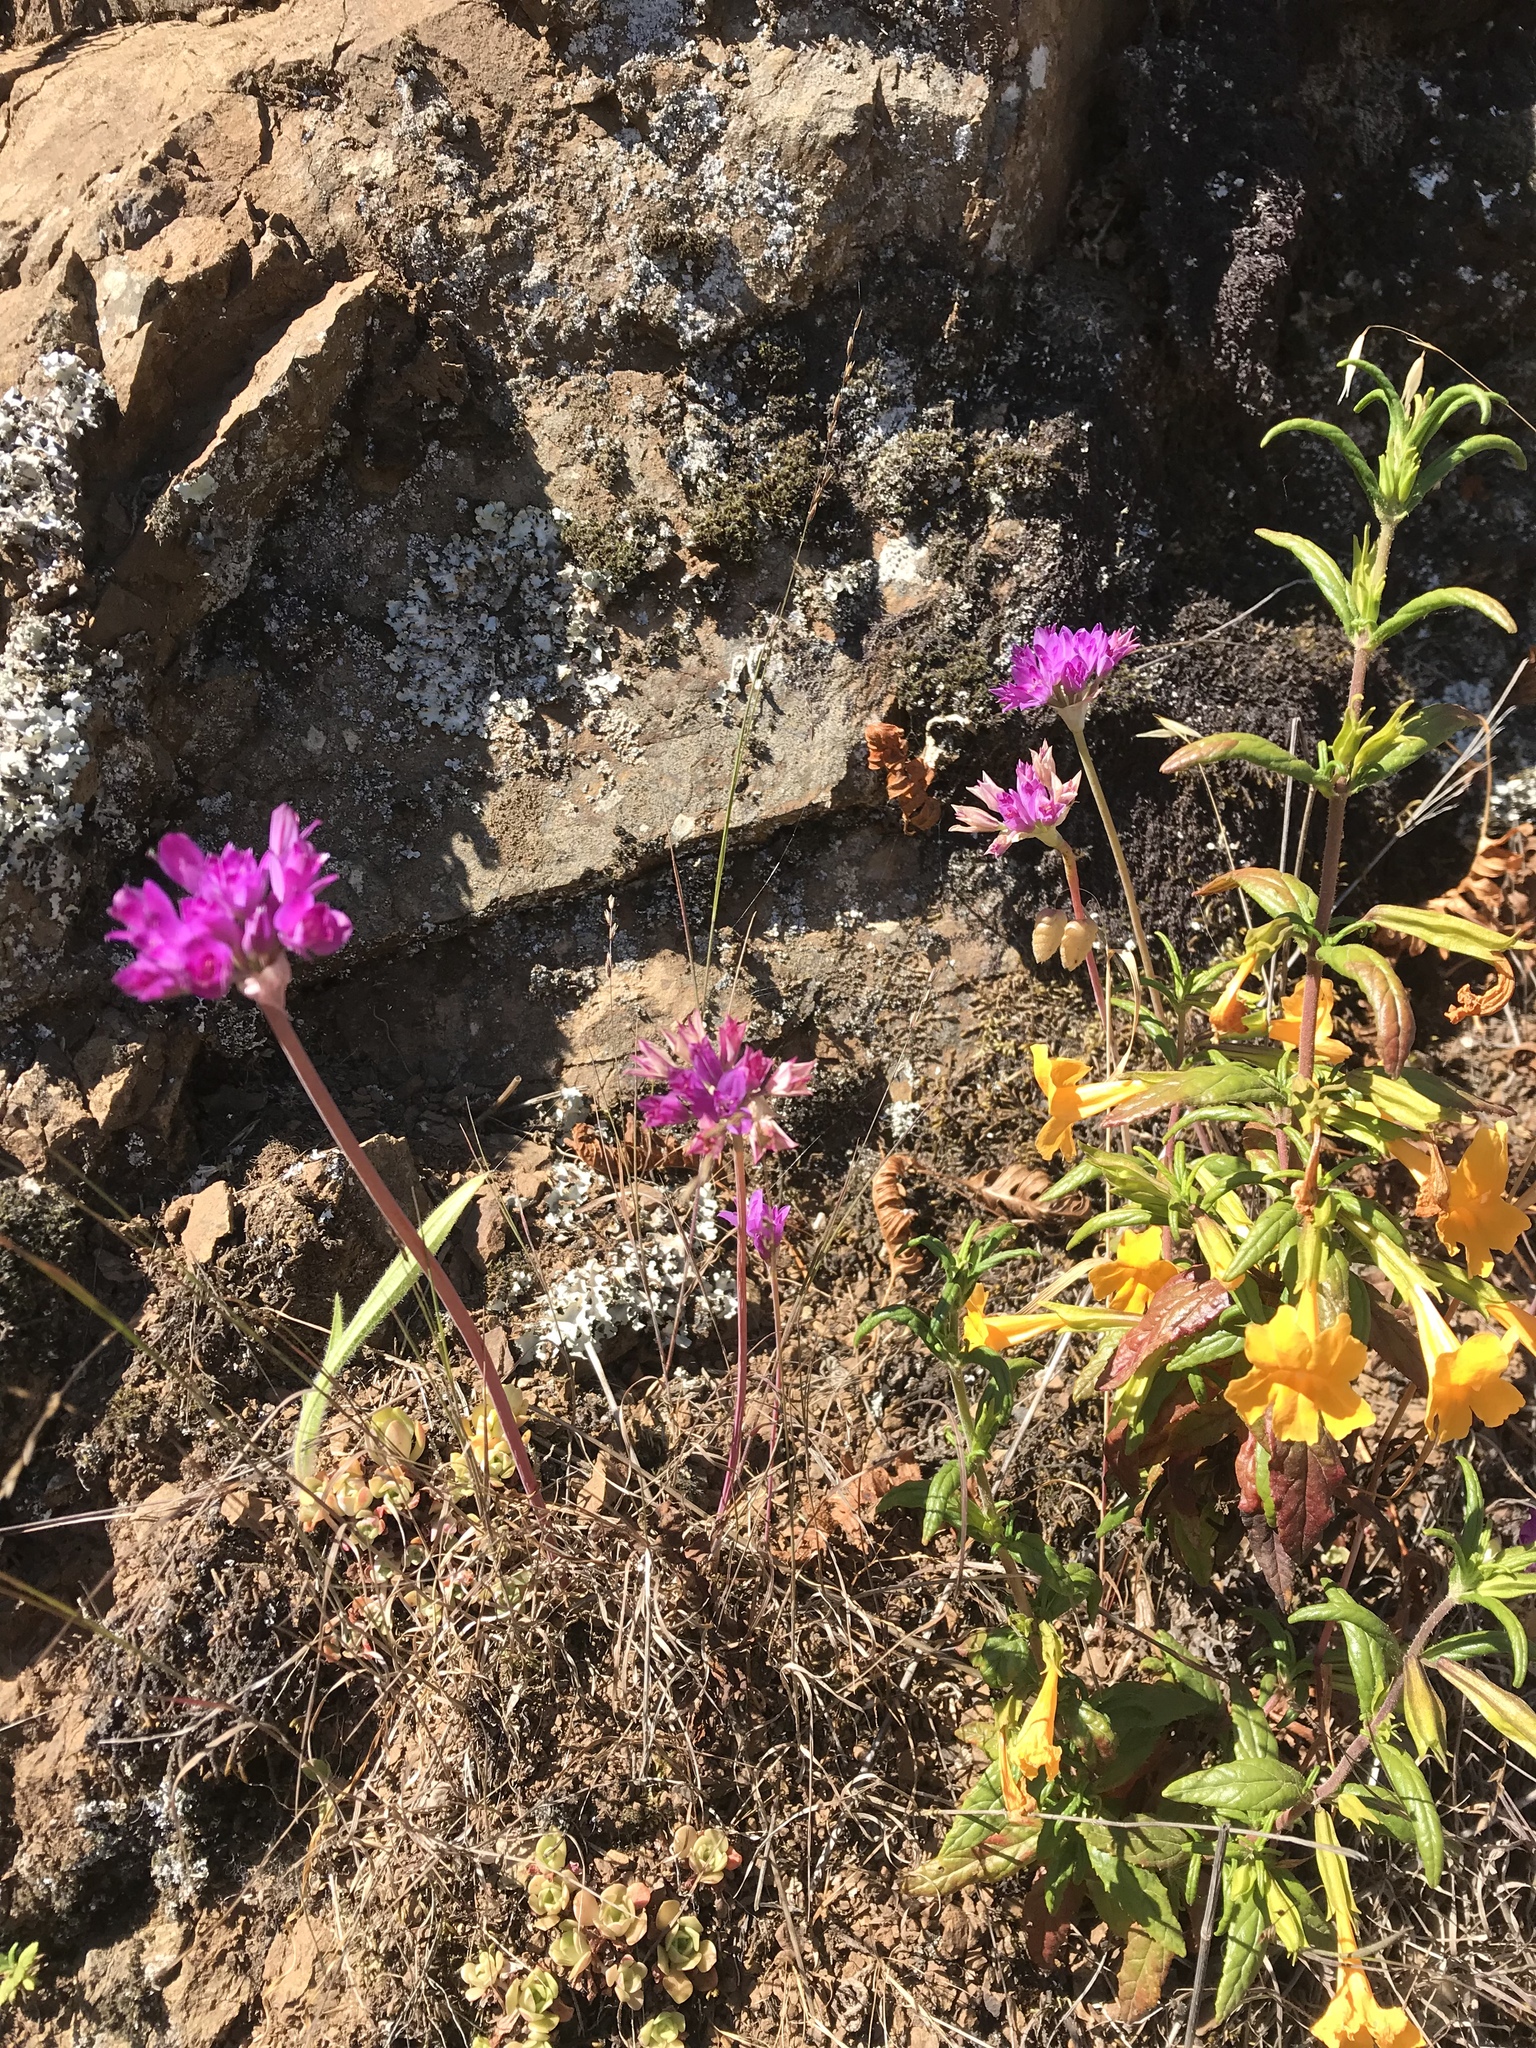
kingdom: Plantae
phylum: Tracheophyta
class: Liliopsida
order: Asparagales
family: Amaryllidaceae
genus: Allium
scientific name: Allium dichlamydeum
